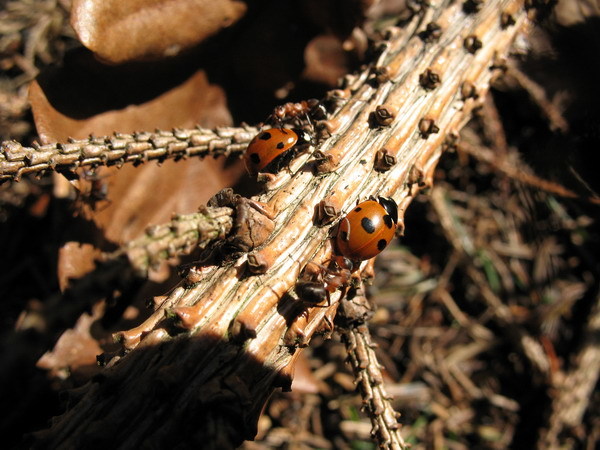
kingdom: Animalia
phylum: Arthropoda
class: Insecta
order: Coleoptera
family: Coccinellidae
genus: Coccinella
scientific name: Coccinella magnifica
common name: Scarce 7-spot ladybird
